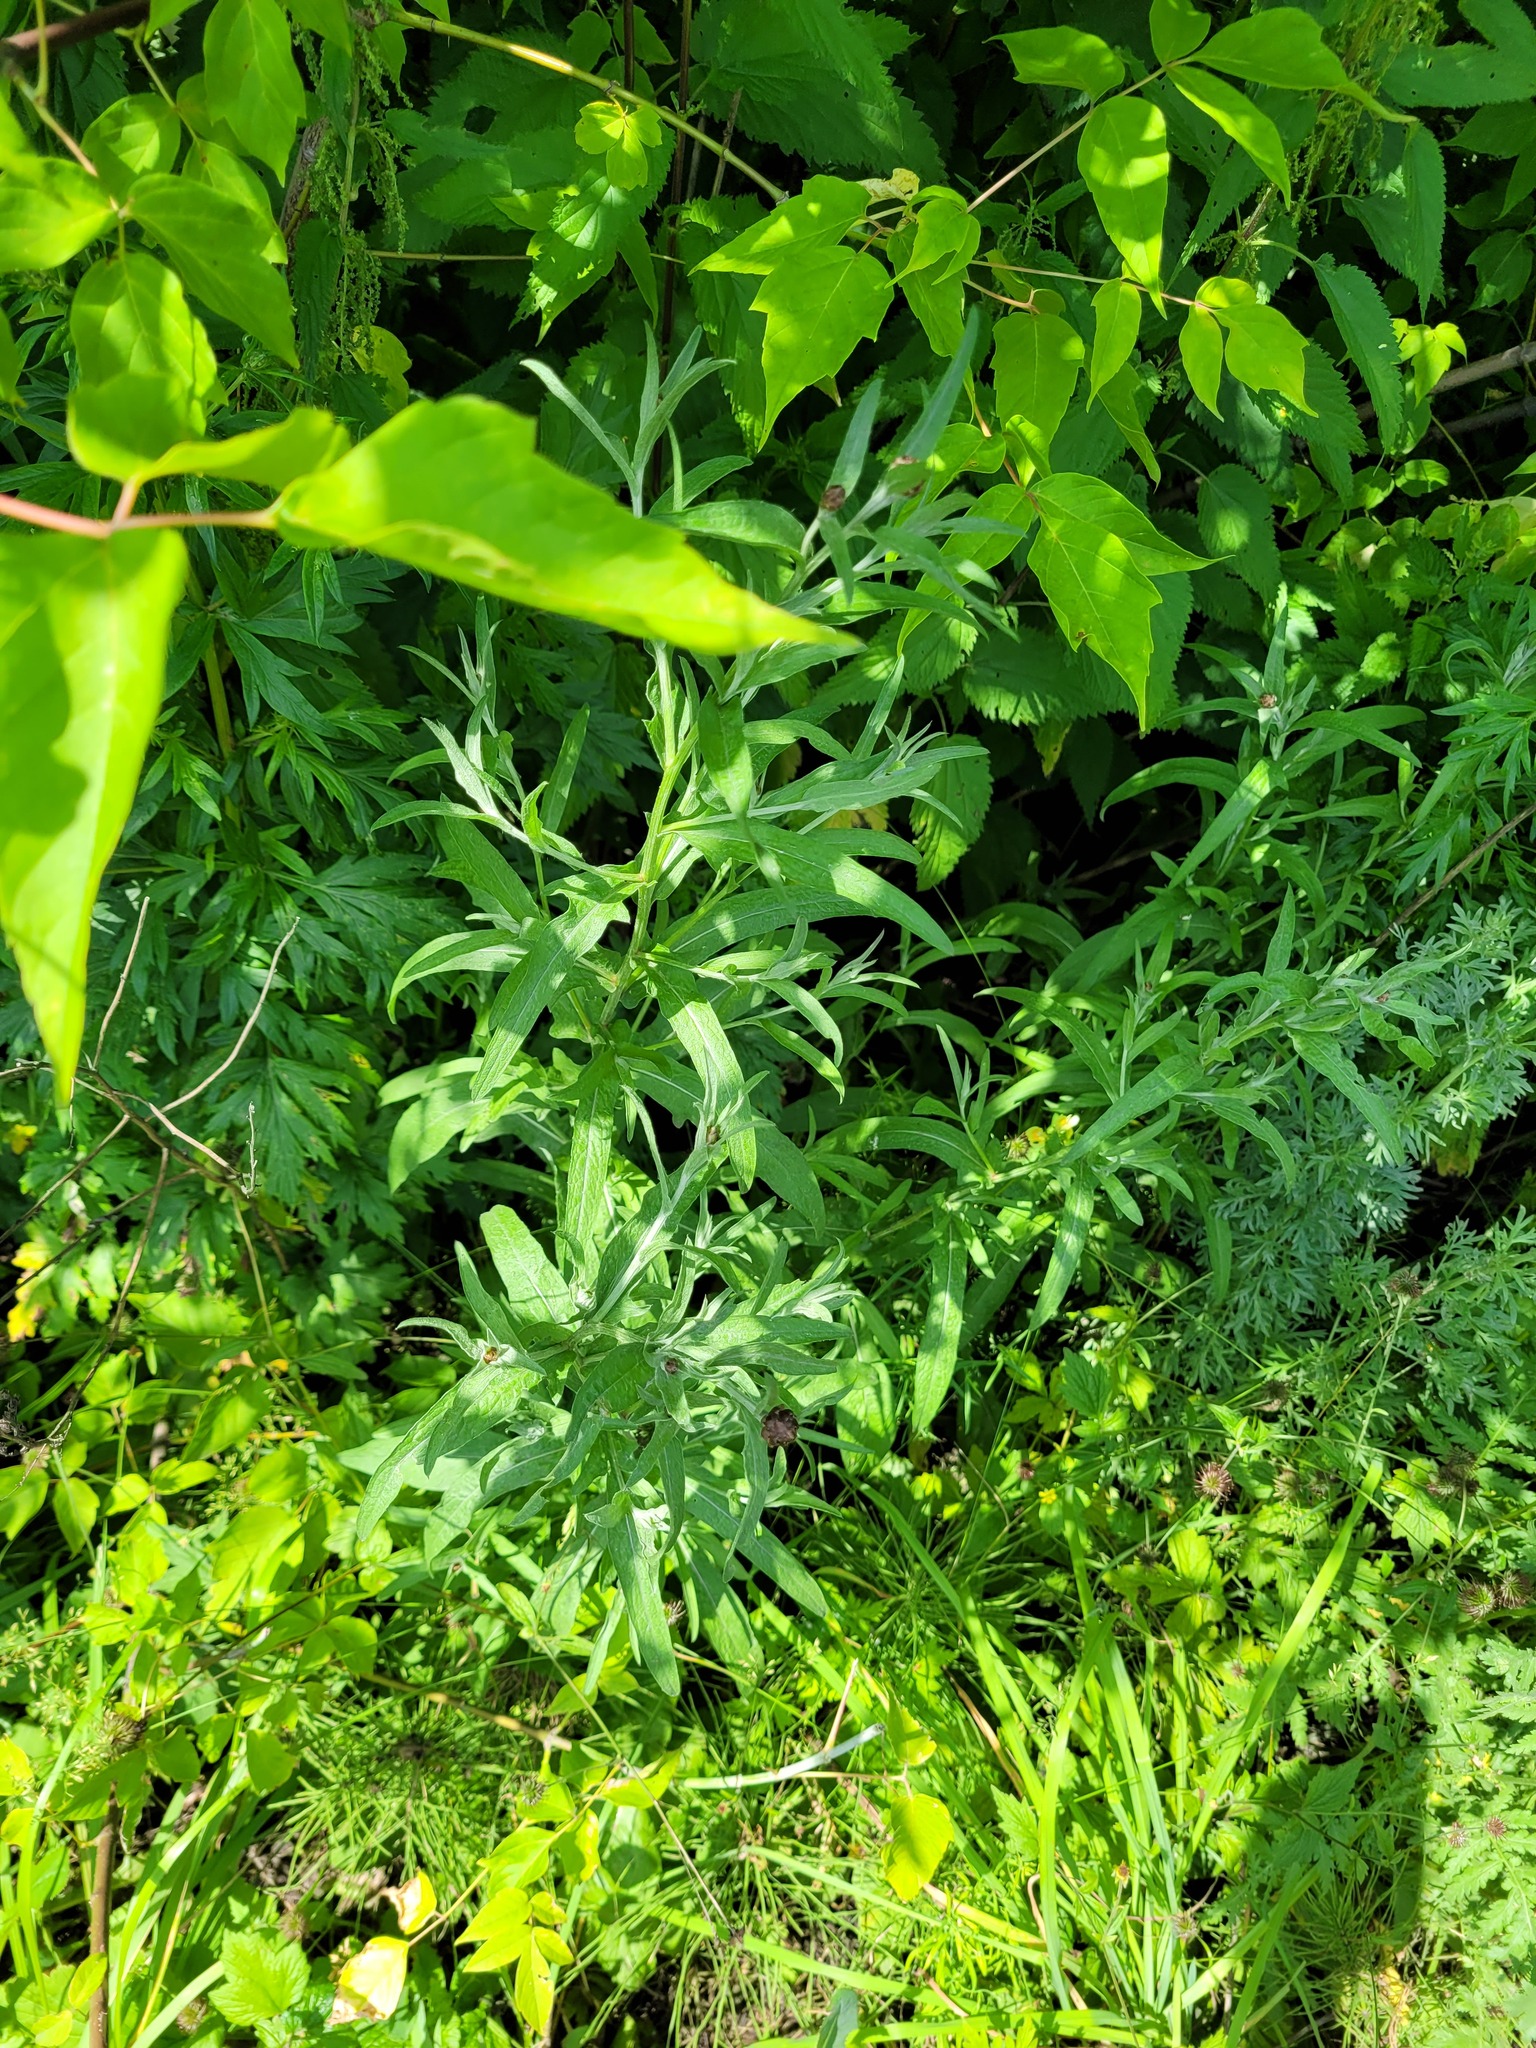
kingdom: Plantae
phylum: Tracheophyta
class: Magnoliopsida
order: Asterales
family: Asteraceae
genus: Centaurea
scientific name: Centaurea jacea
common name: Brown knapweed
